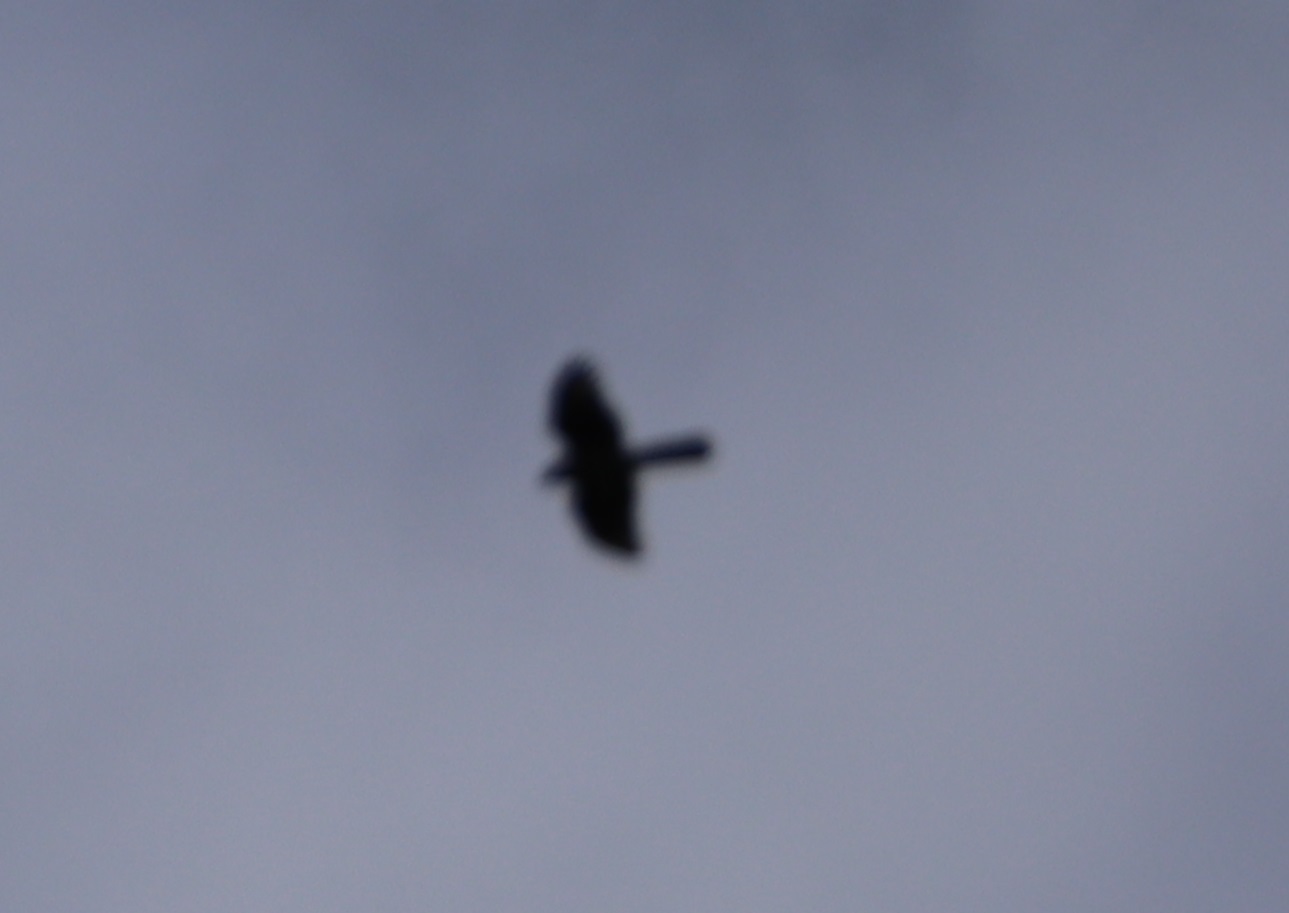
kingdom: Animalia
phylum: Chordata
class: Aves
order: Accipitriformes
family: Accipitridae
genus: Accipiter
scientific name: Accipiter
